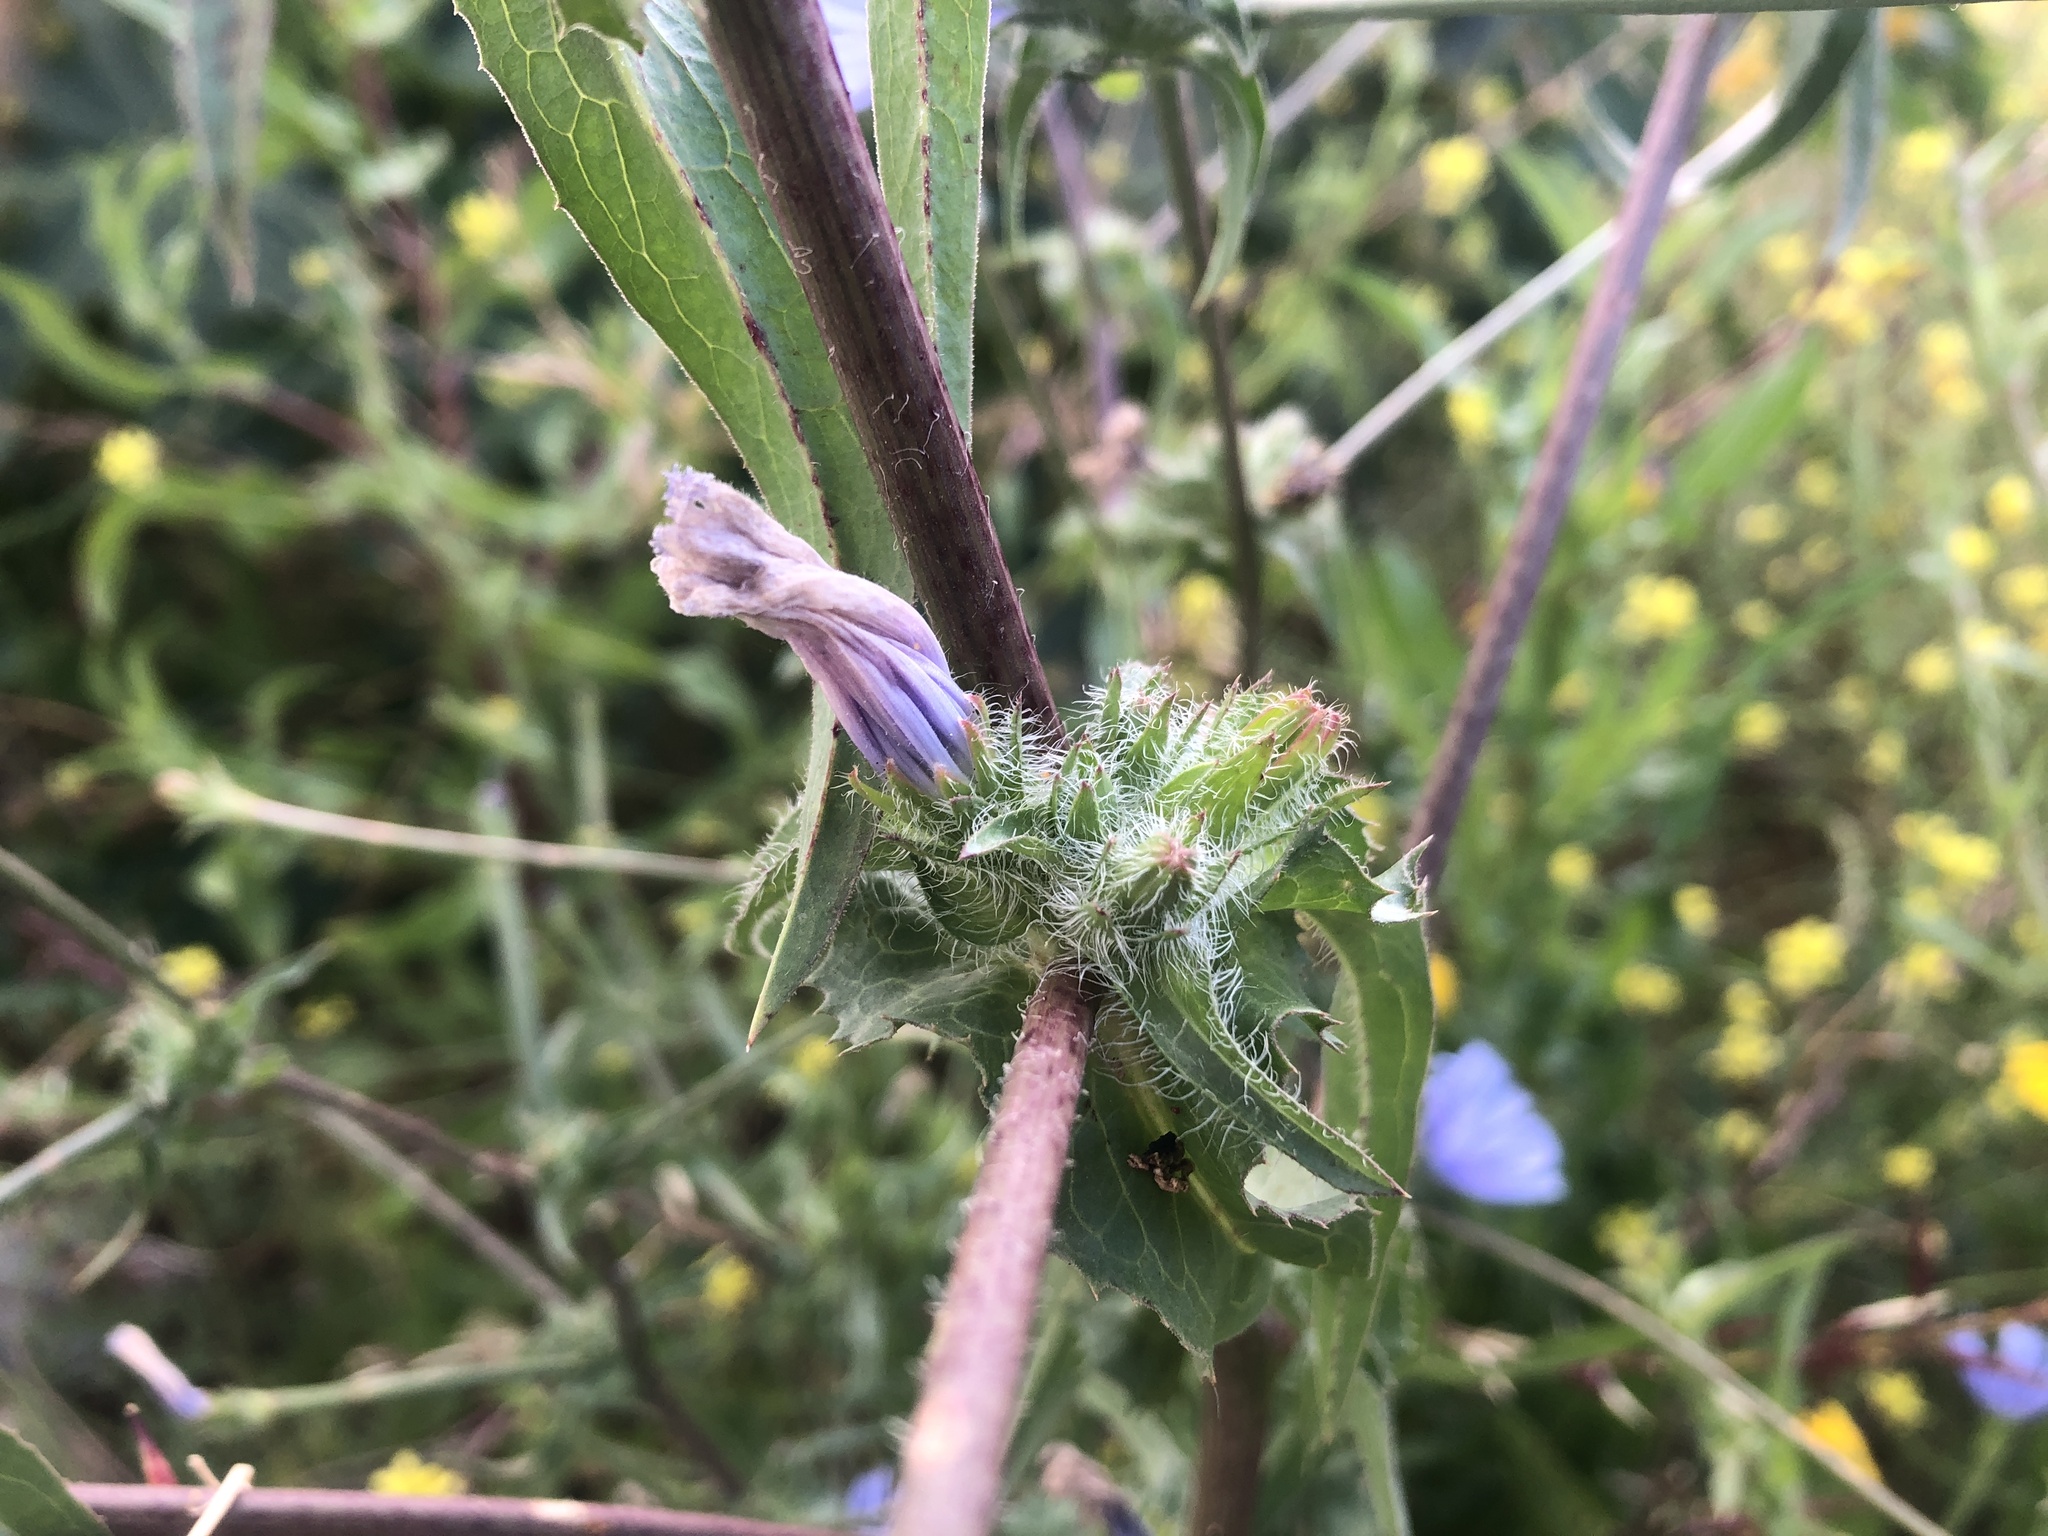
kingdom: Plantae
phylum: Tracheophyta
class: Magnoliopsida
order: Asterales
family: Asteraceae
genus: Cichorium
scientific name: Cichorium endivia
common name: Endive
